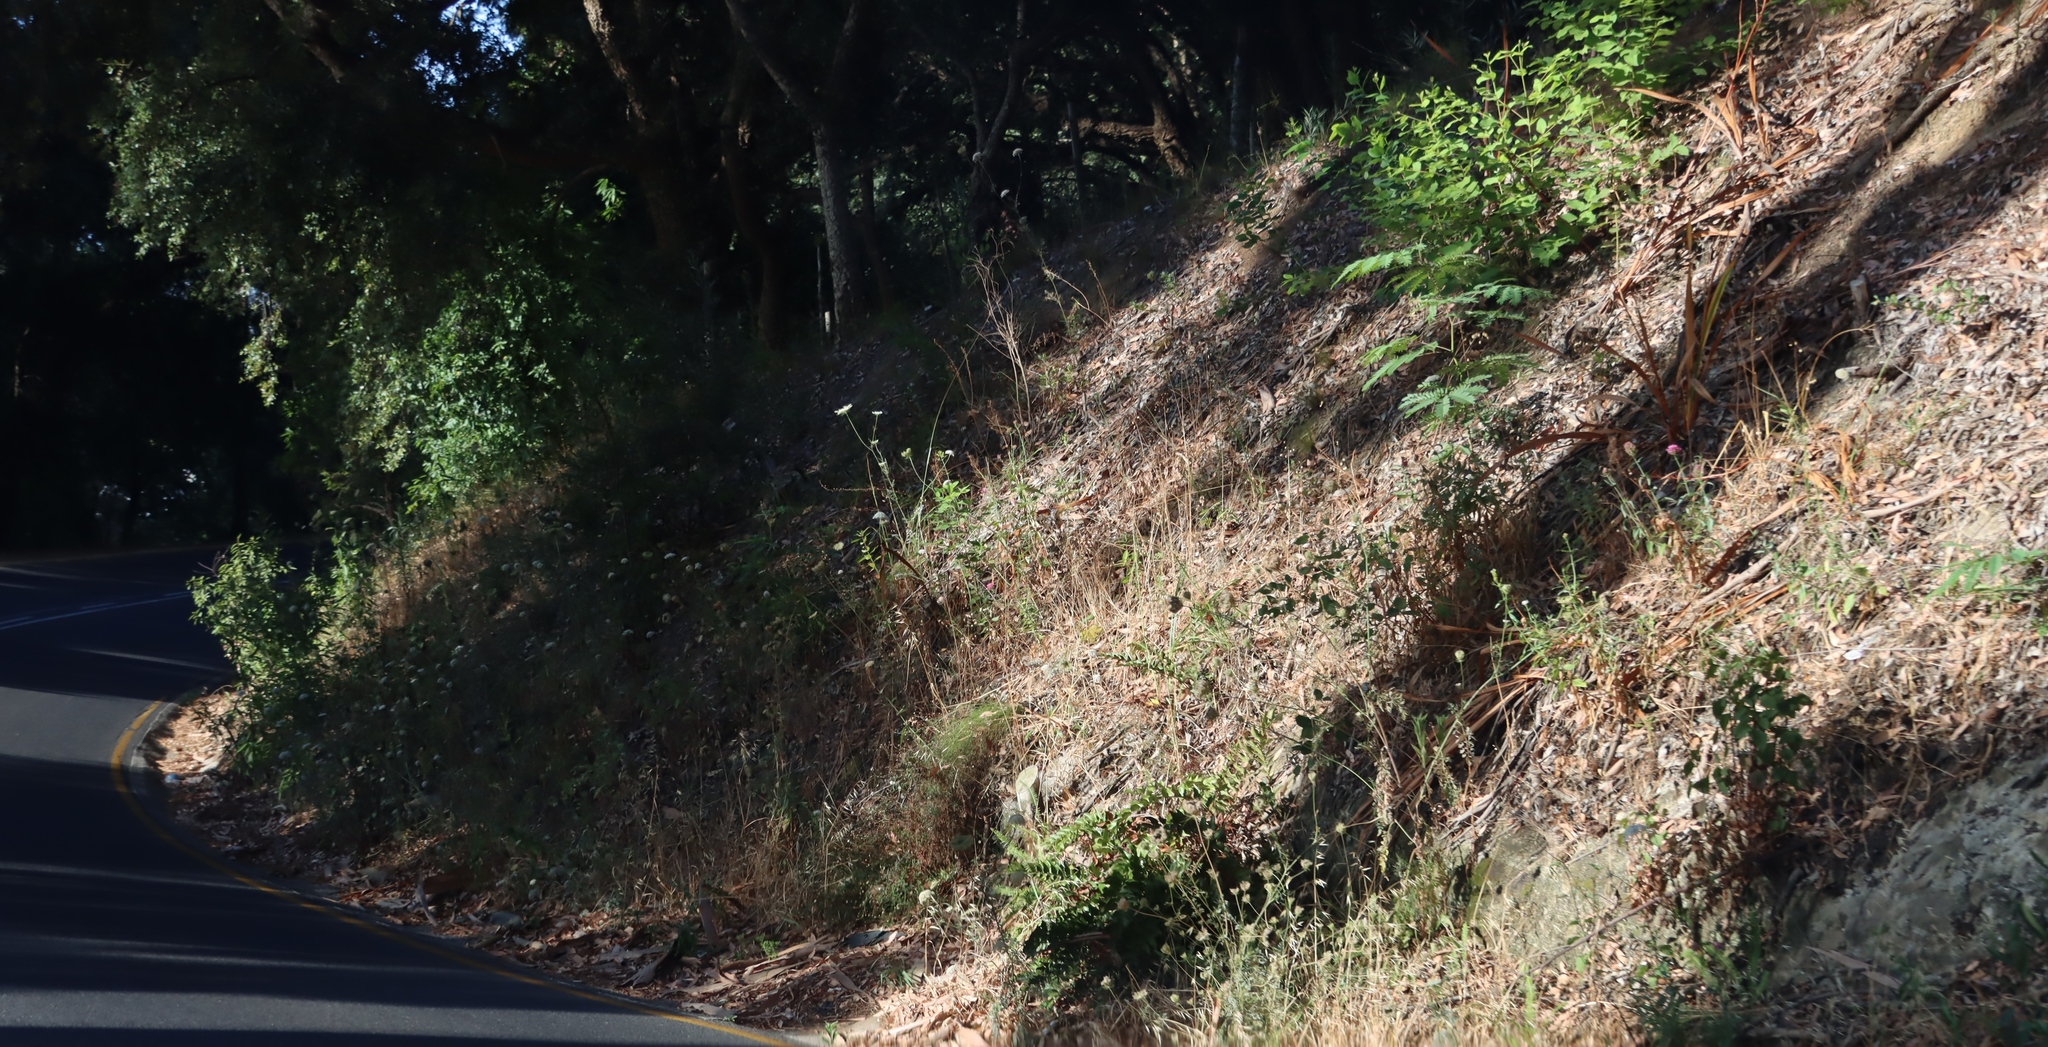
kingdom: Plantae
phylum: Tracheophyta
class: Magnoliopsida
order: Apiales
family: Apiaceae
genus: Daucus
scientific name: Daucus carota
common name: Wild carrot
